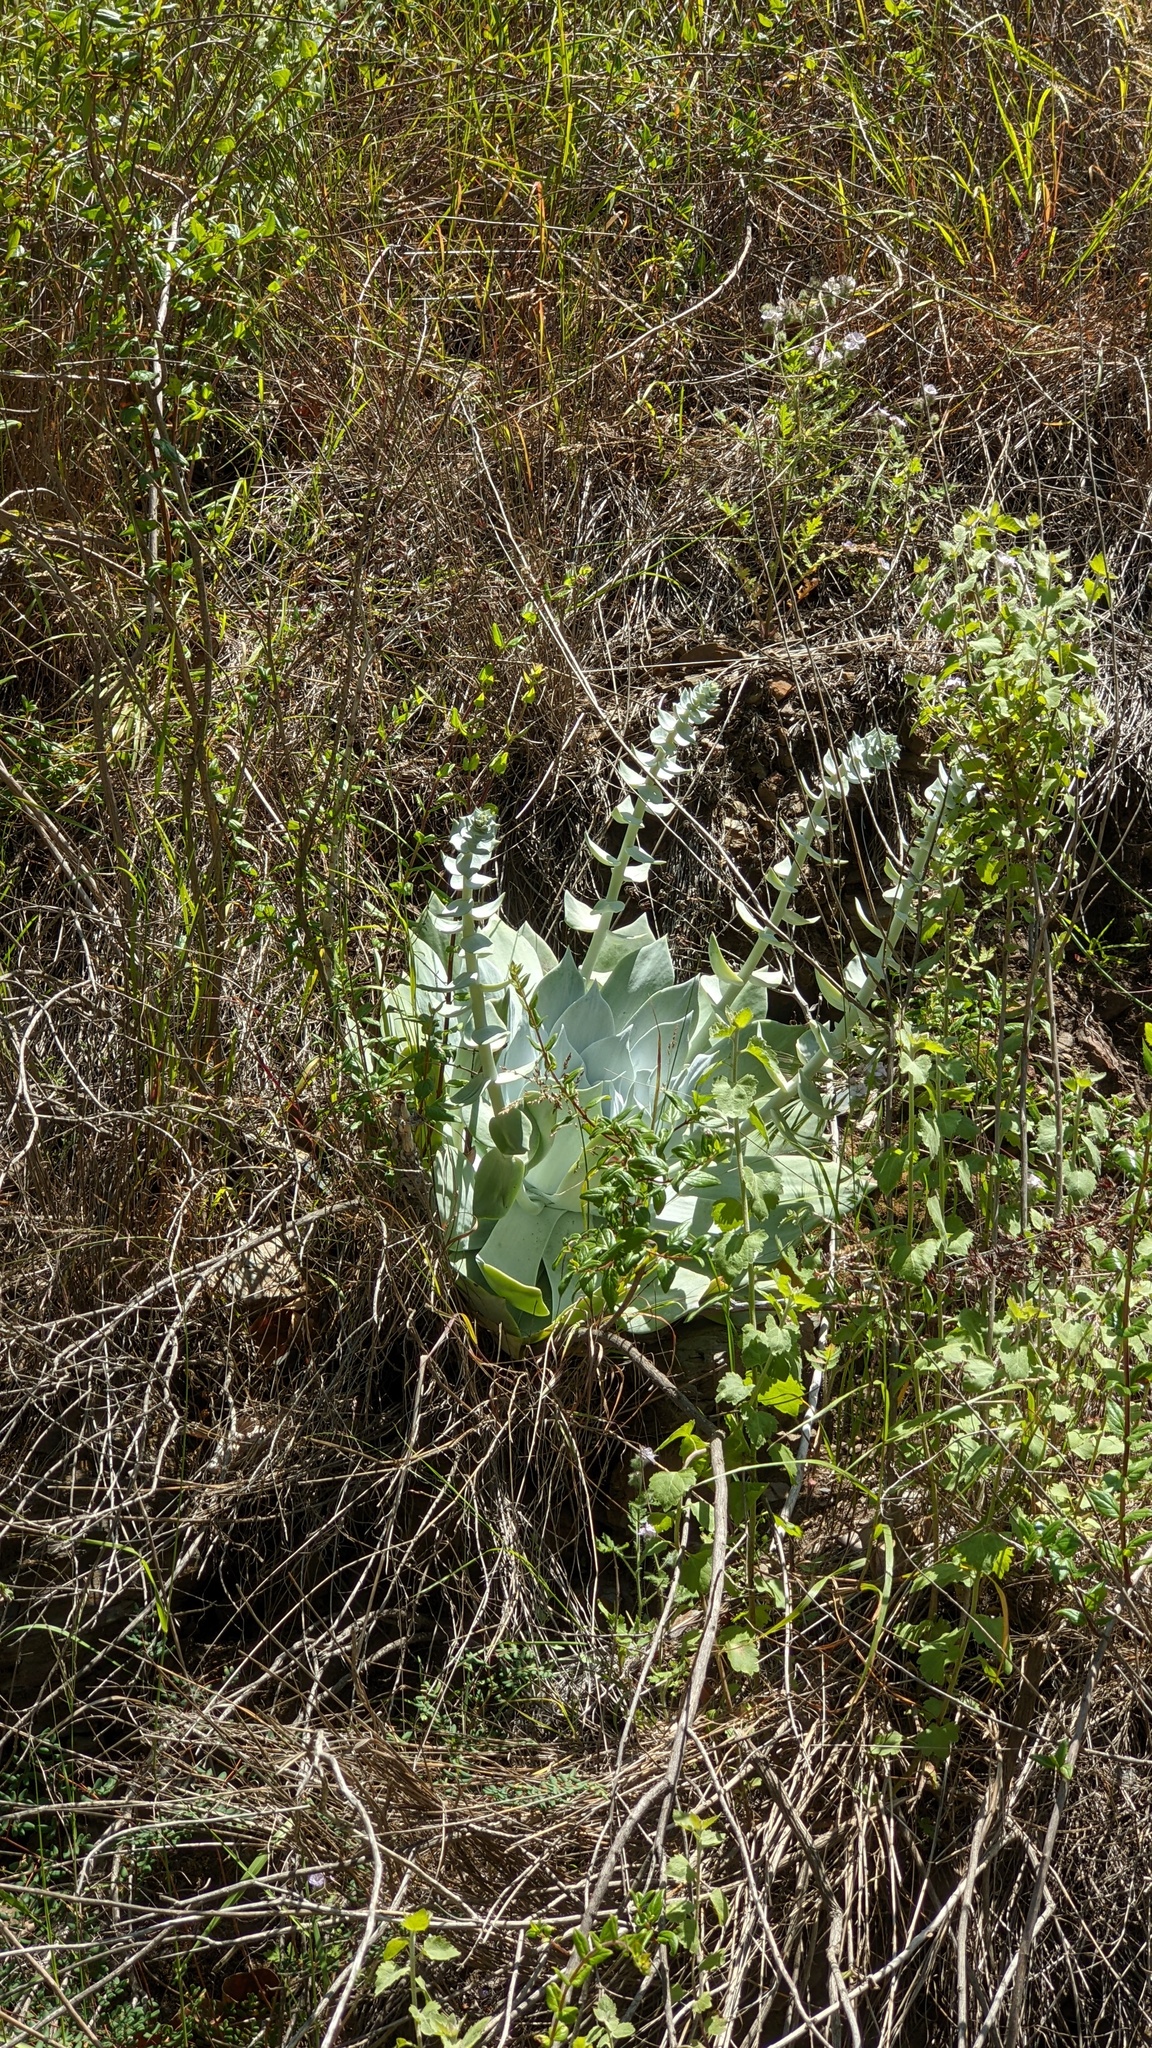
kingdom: Plantae
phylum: Tracheophyta
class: Magnoliopsida
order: Saxifragales
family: Crassulaceae
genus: Dudleya
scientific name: Dudleya pulverulenta
